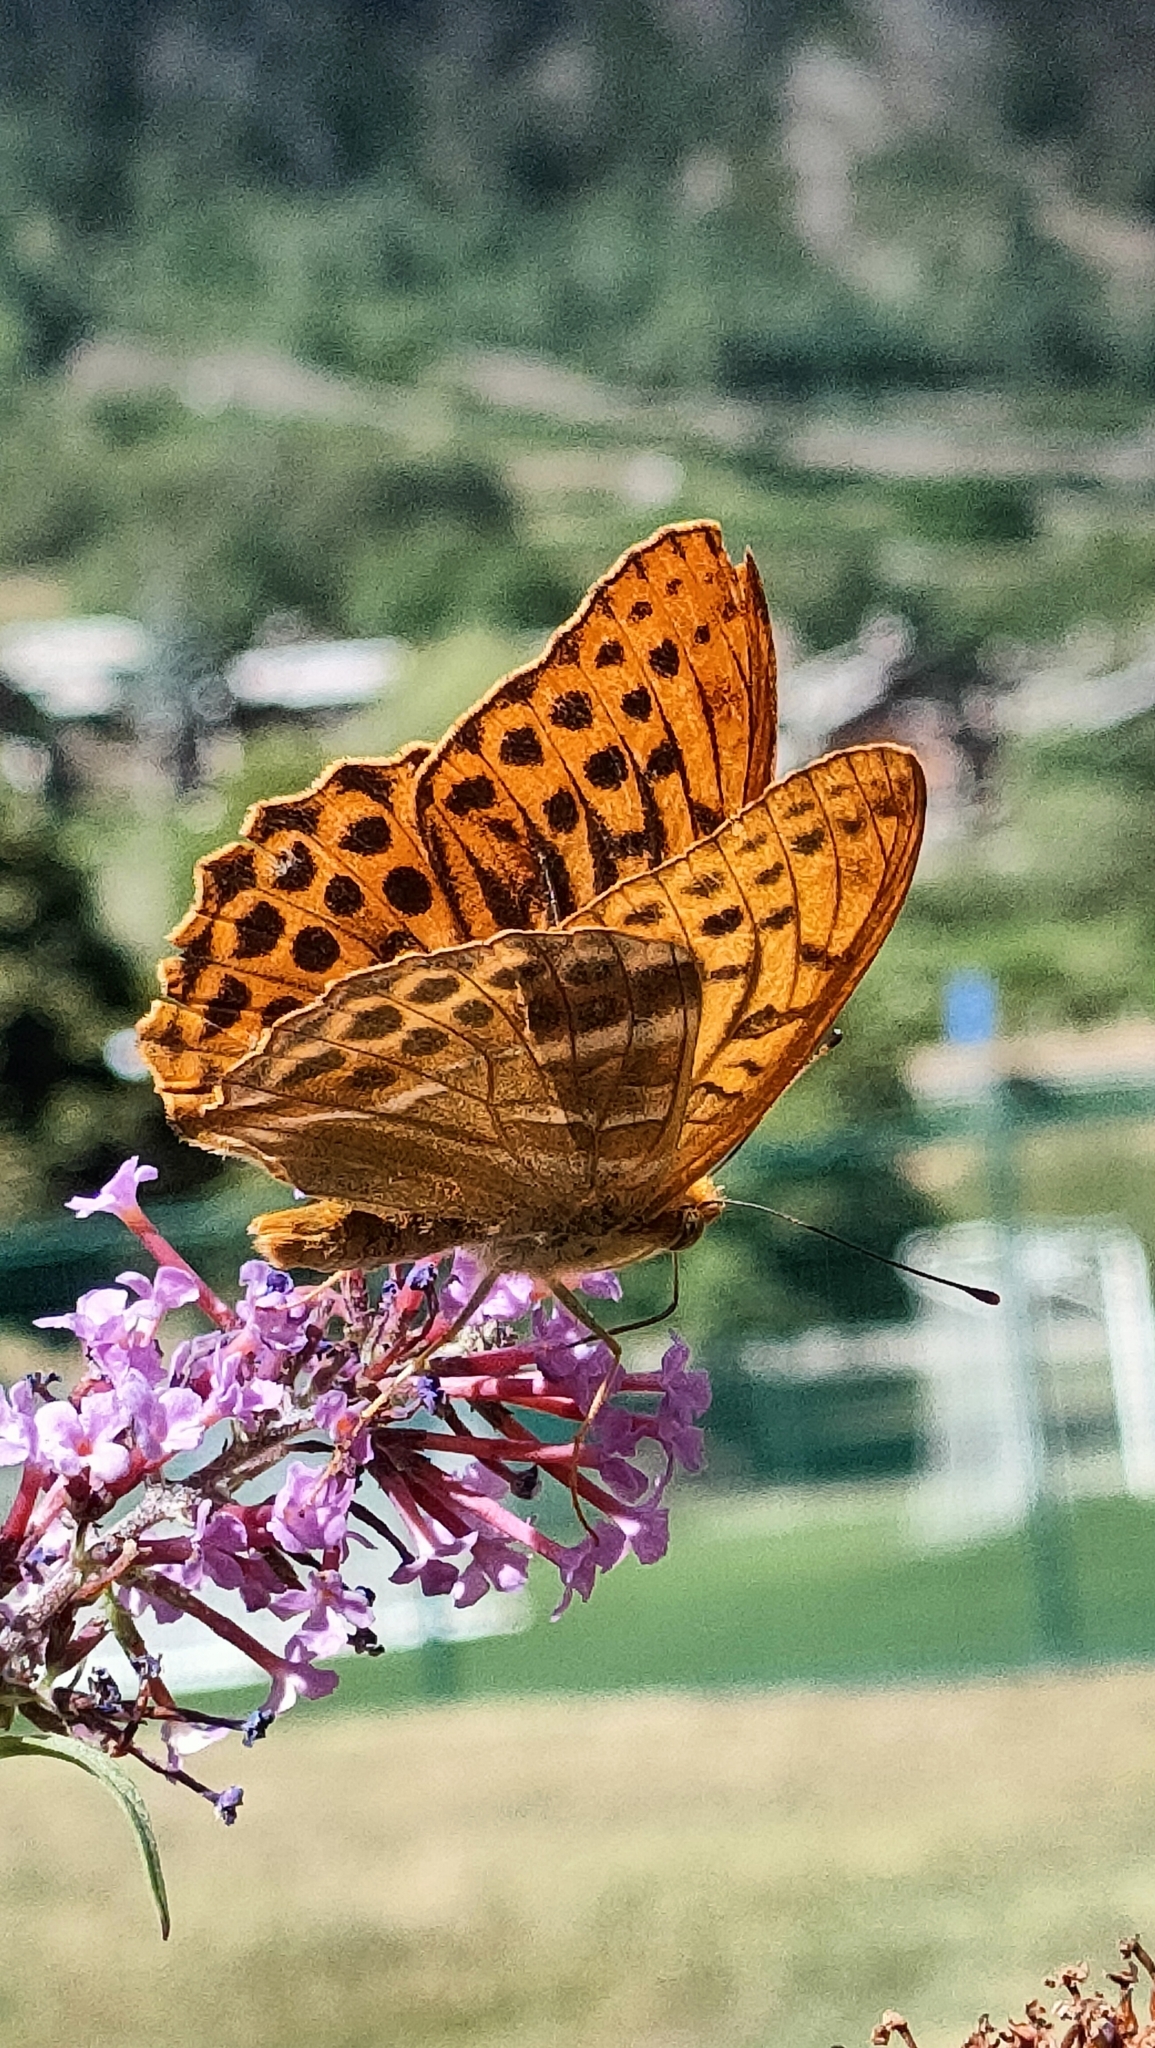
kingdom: Animalia
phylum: Arthropoda
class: Insecta
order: Lepidoptera
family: Nymphalidae
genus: Argynnis
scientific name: Argynnis paphia
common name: Silver-washed fritillary
